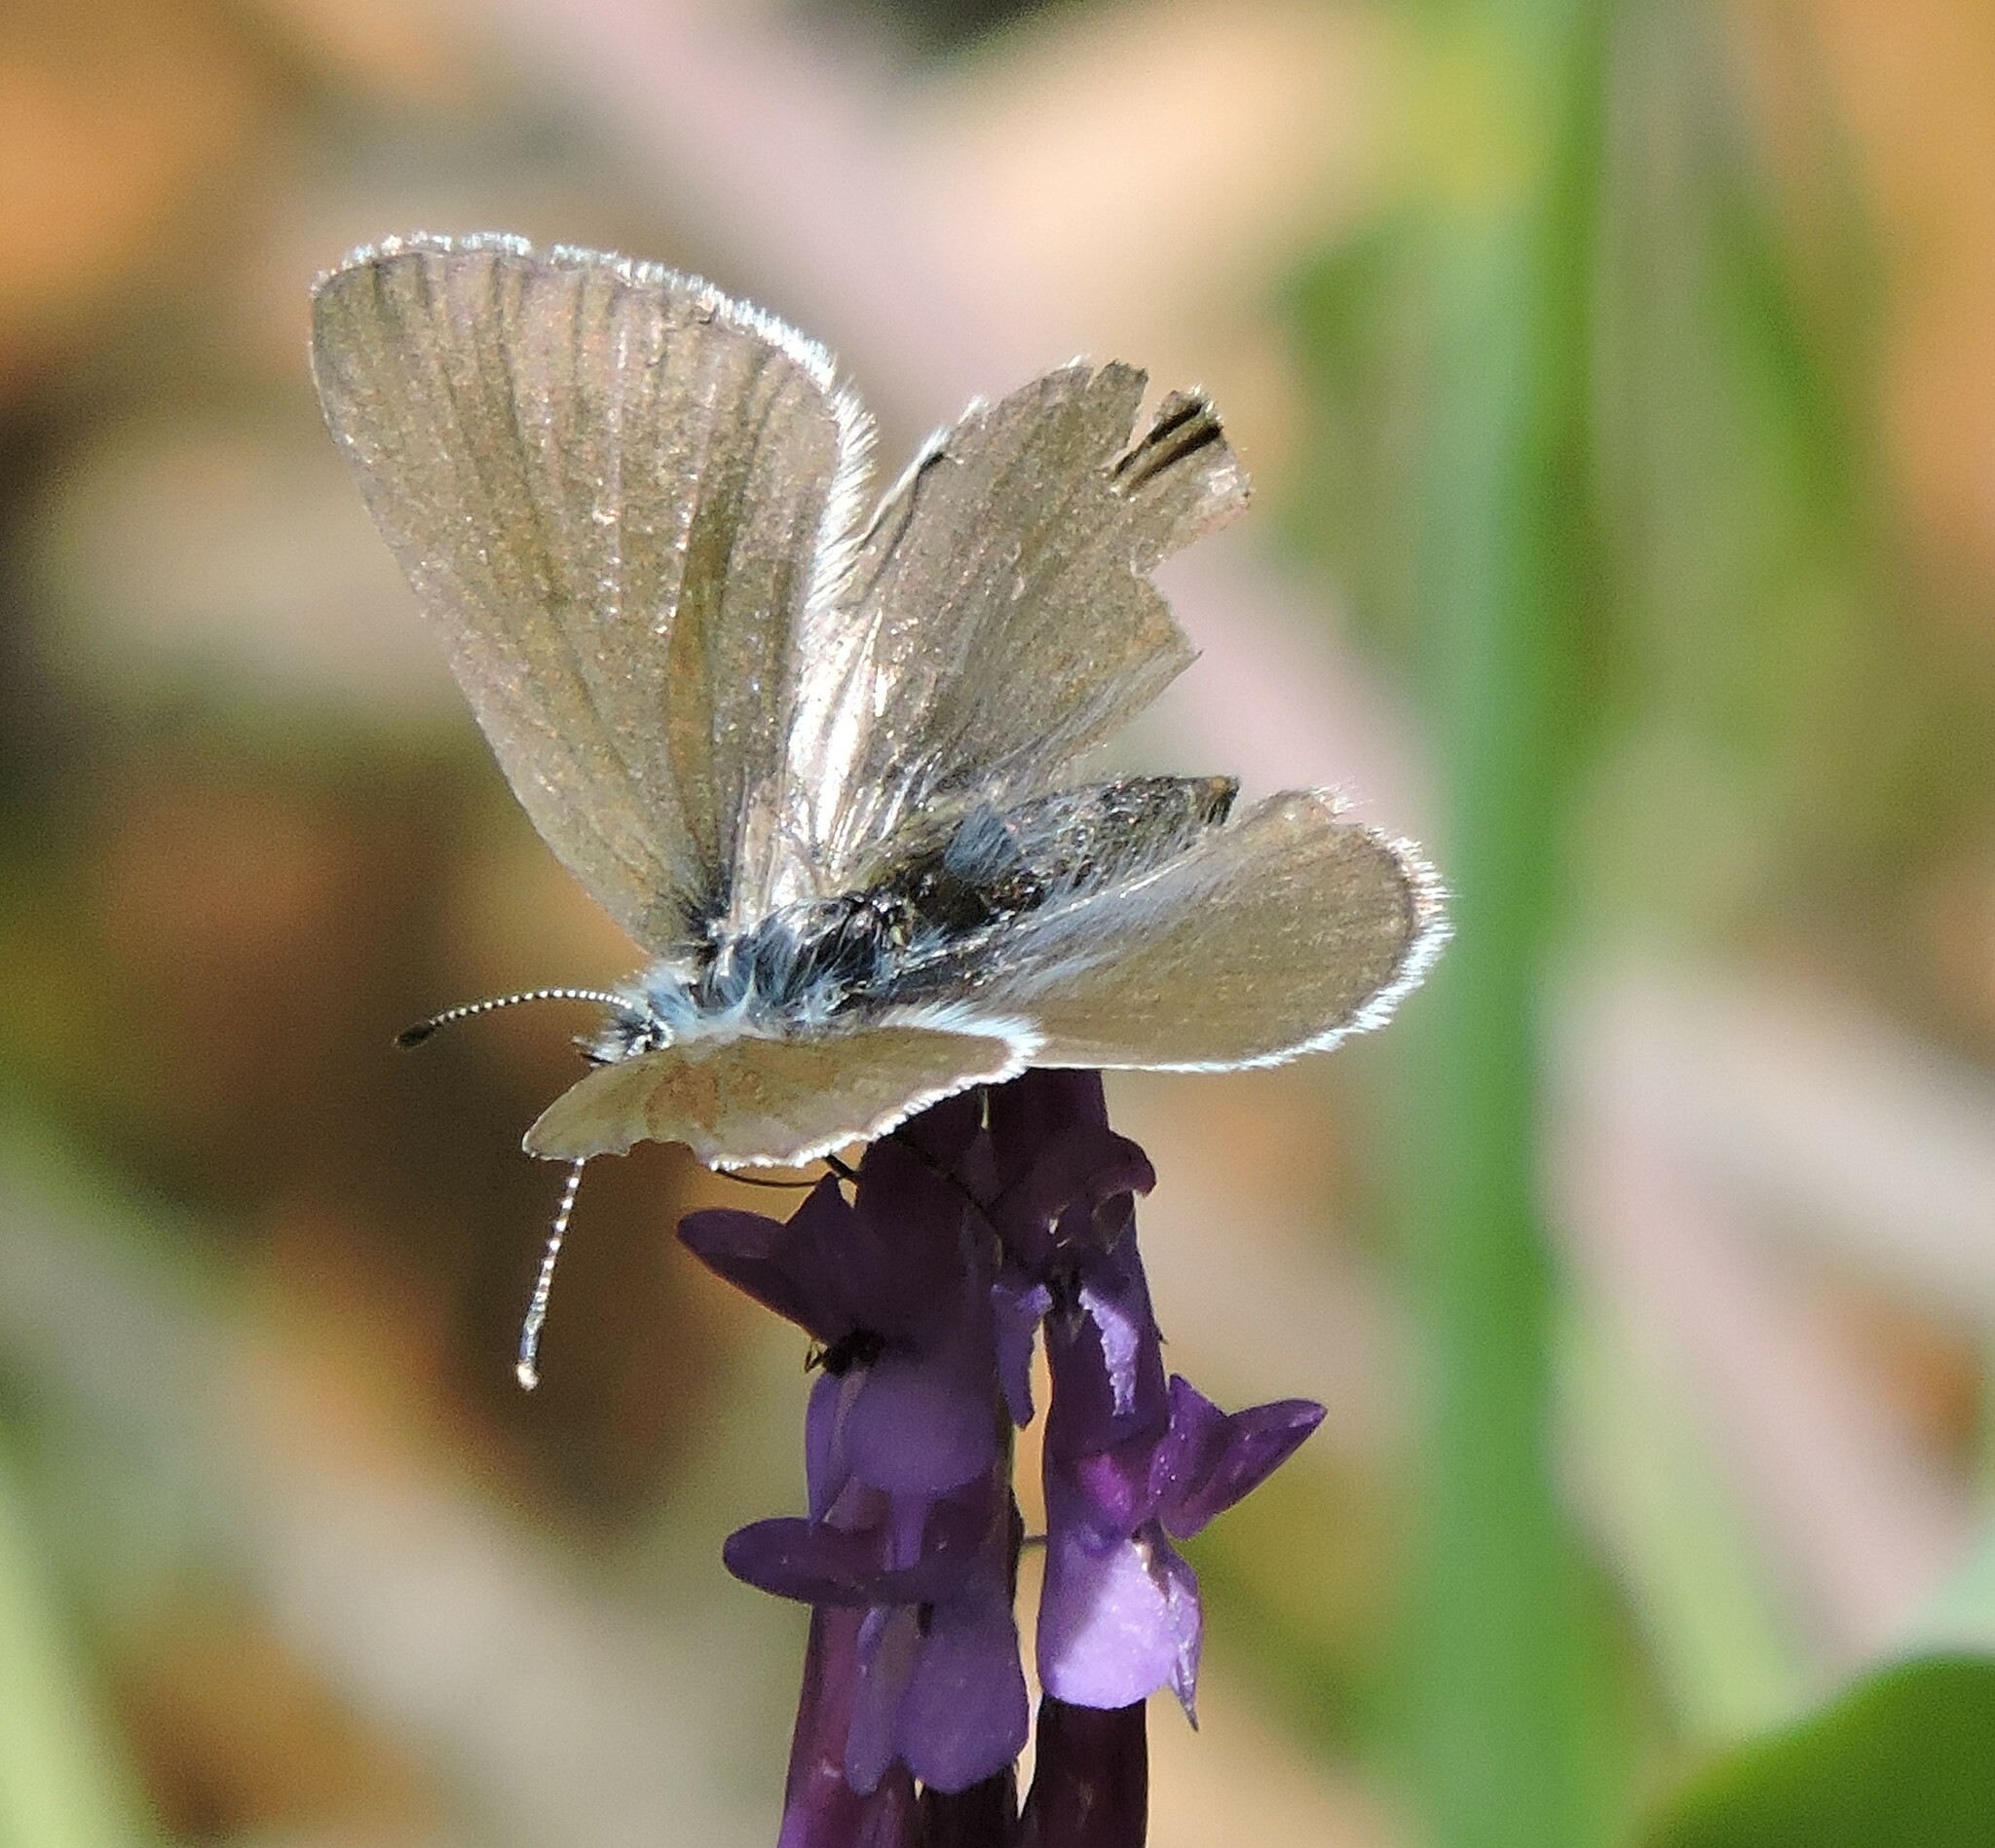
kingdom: Animalia
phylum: Arthropoda
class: Insecta
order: Lepidoptera
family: Lycaenidae
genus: Glaucopsyche
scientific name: Glaucopsyche lygdamus
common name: Silvery blue
